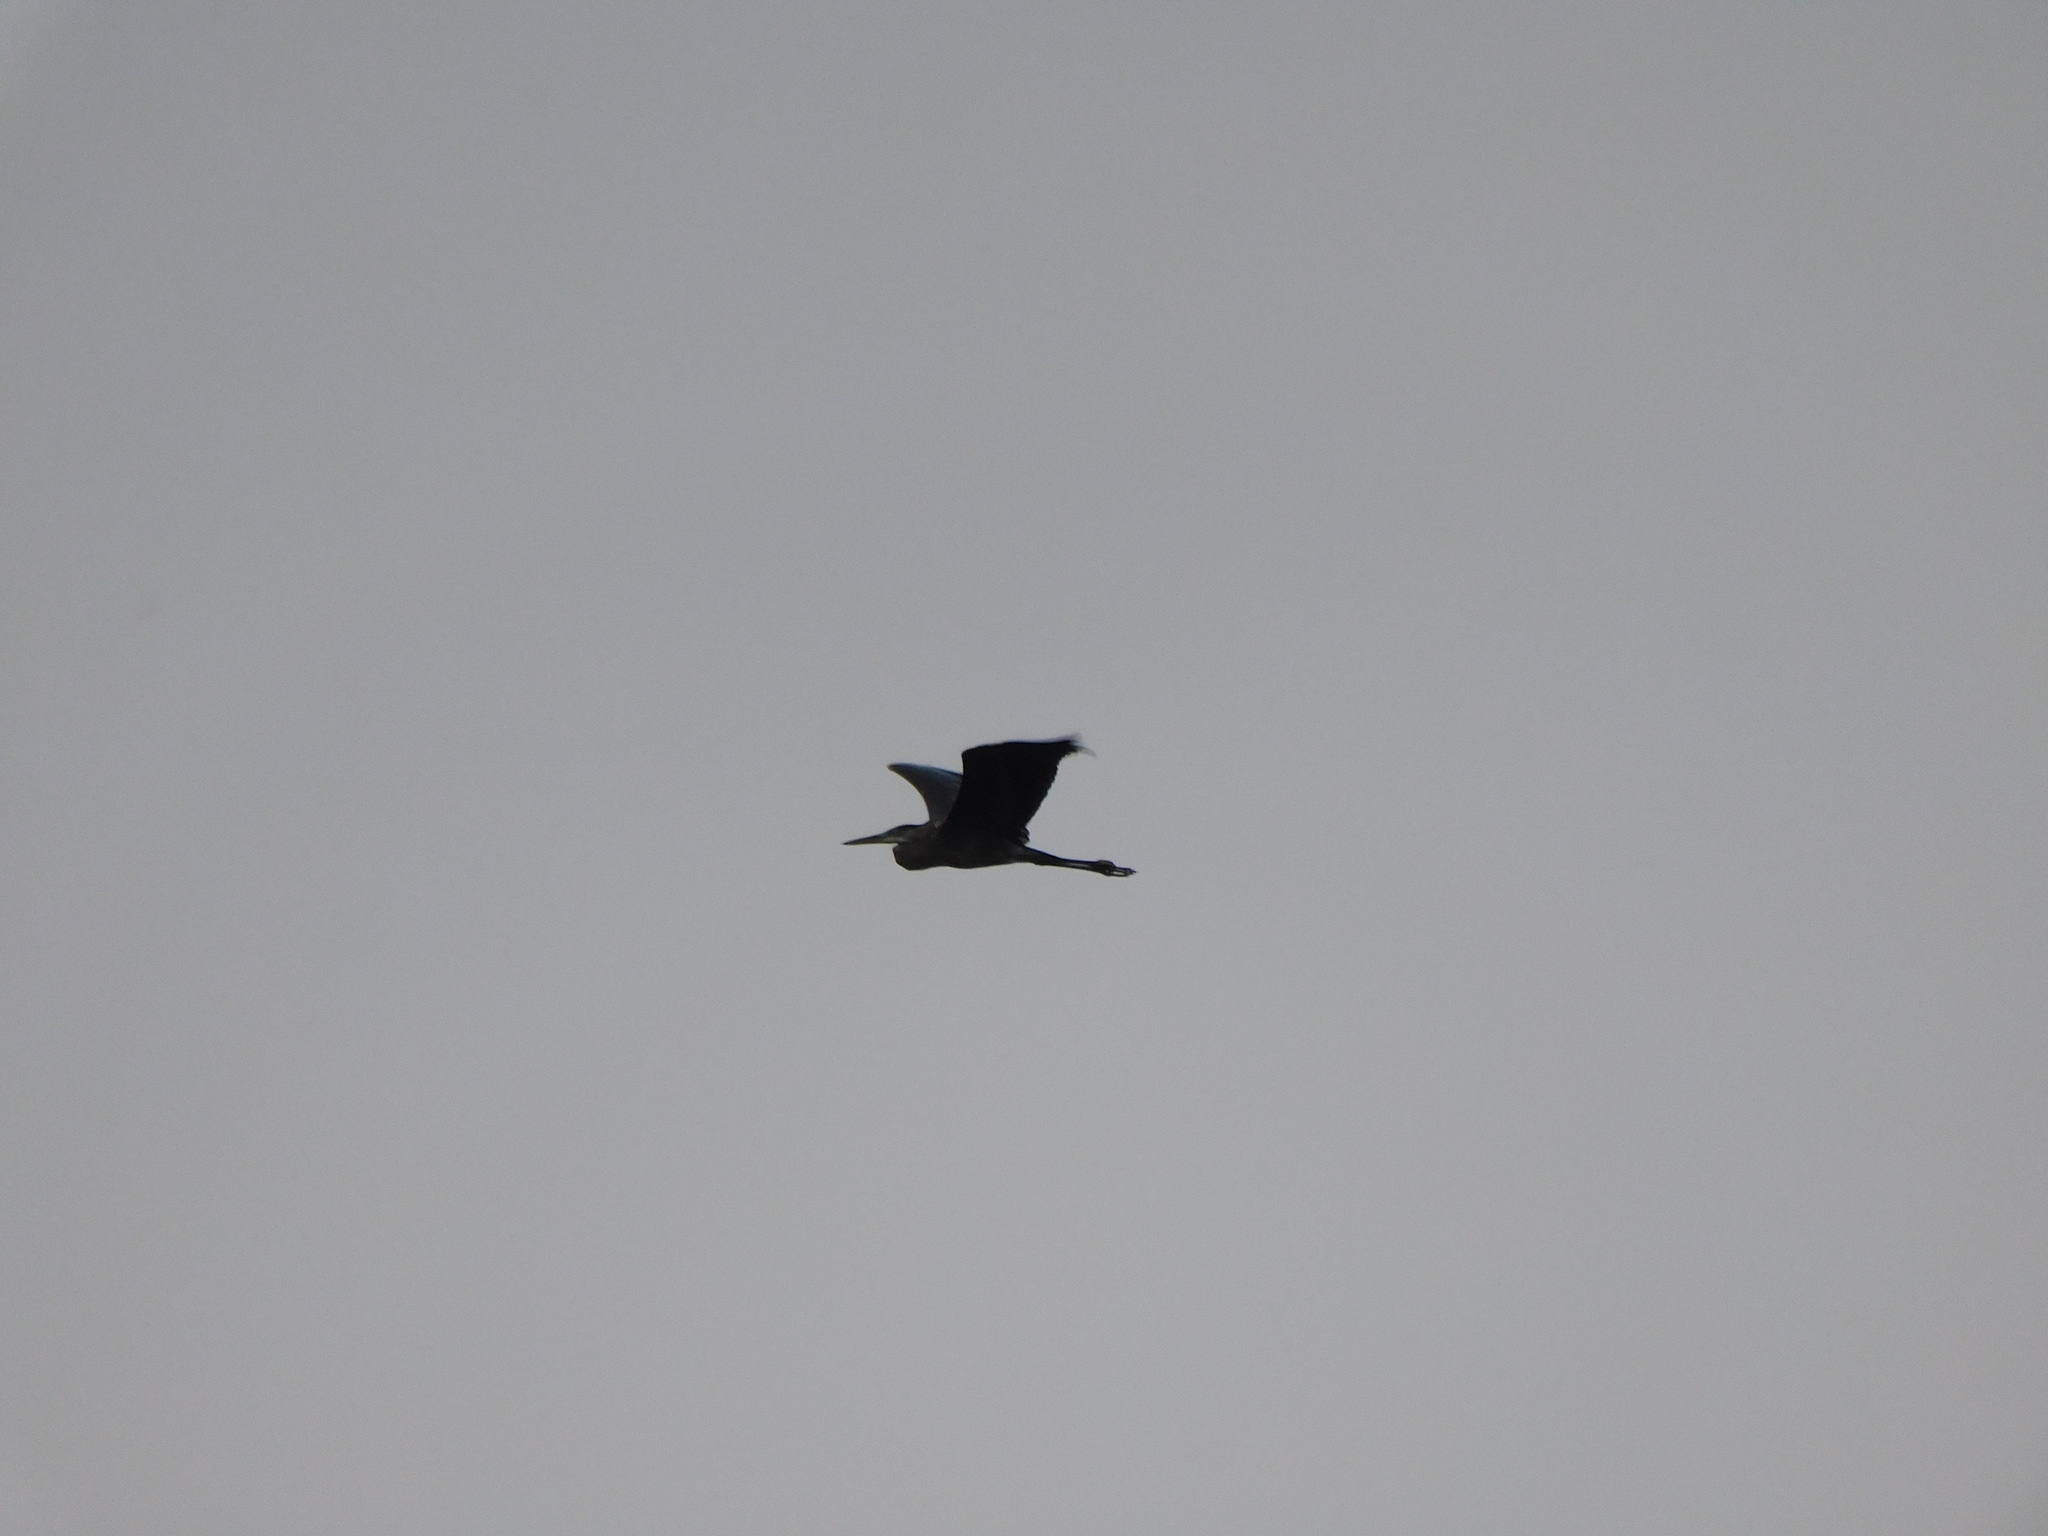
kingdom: Animalia
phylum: Chordata
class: Aves
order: Pelecaniformes
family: Ardeidae
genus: Ardea
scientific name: Ardea herodias
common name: Great blue heron
